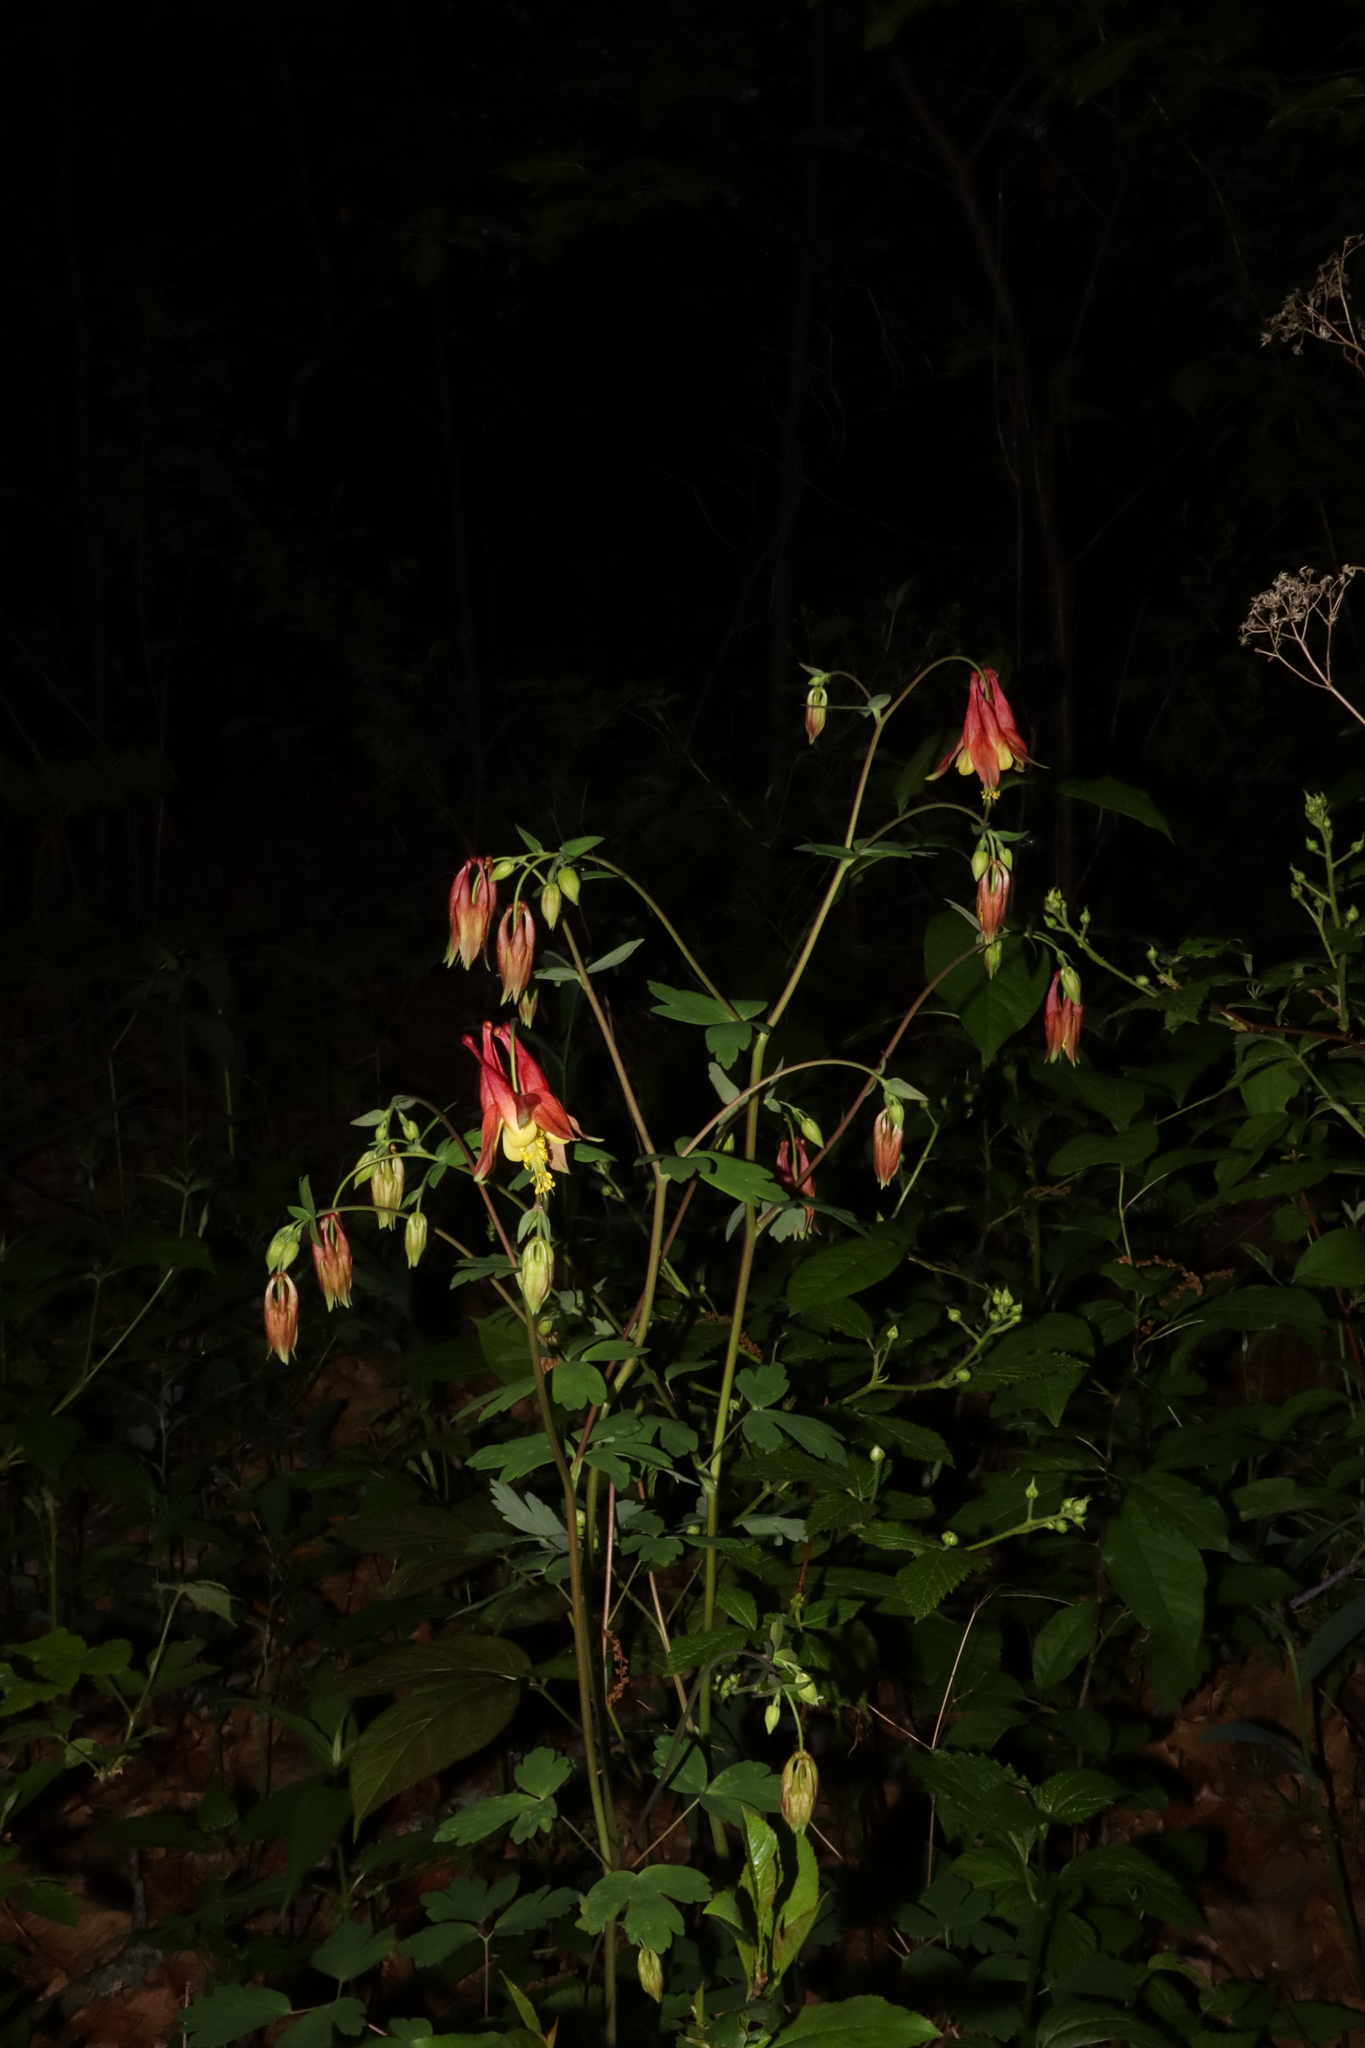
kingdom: Plantae
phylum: Tracheophyta
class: Magnoliopsida
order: Ranunculales
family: Ranunculaceae
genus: Aquilegia
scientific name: Aquilegia canadensis
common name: American columbine
